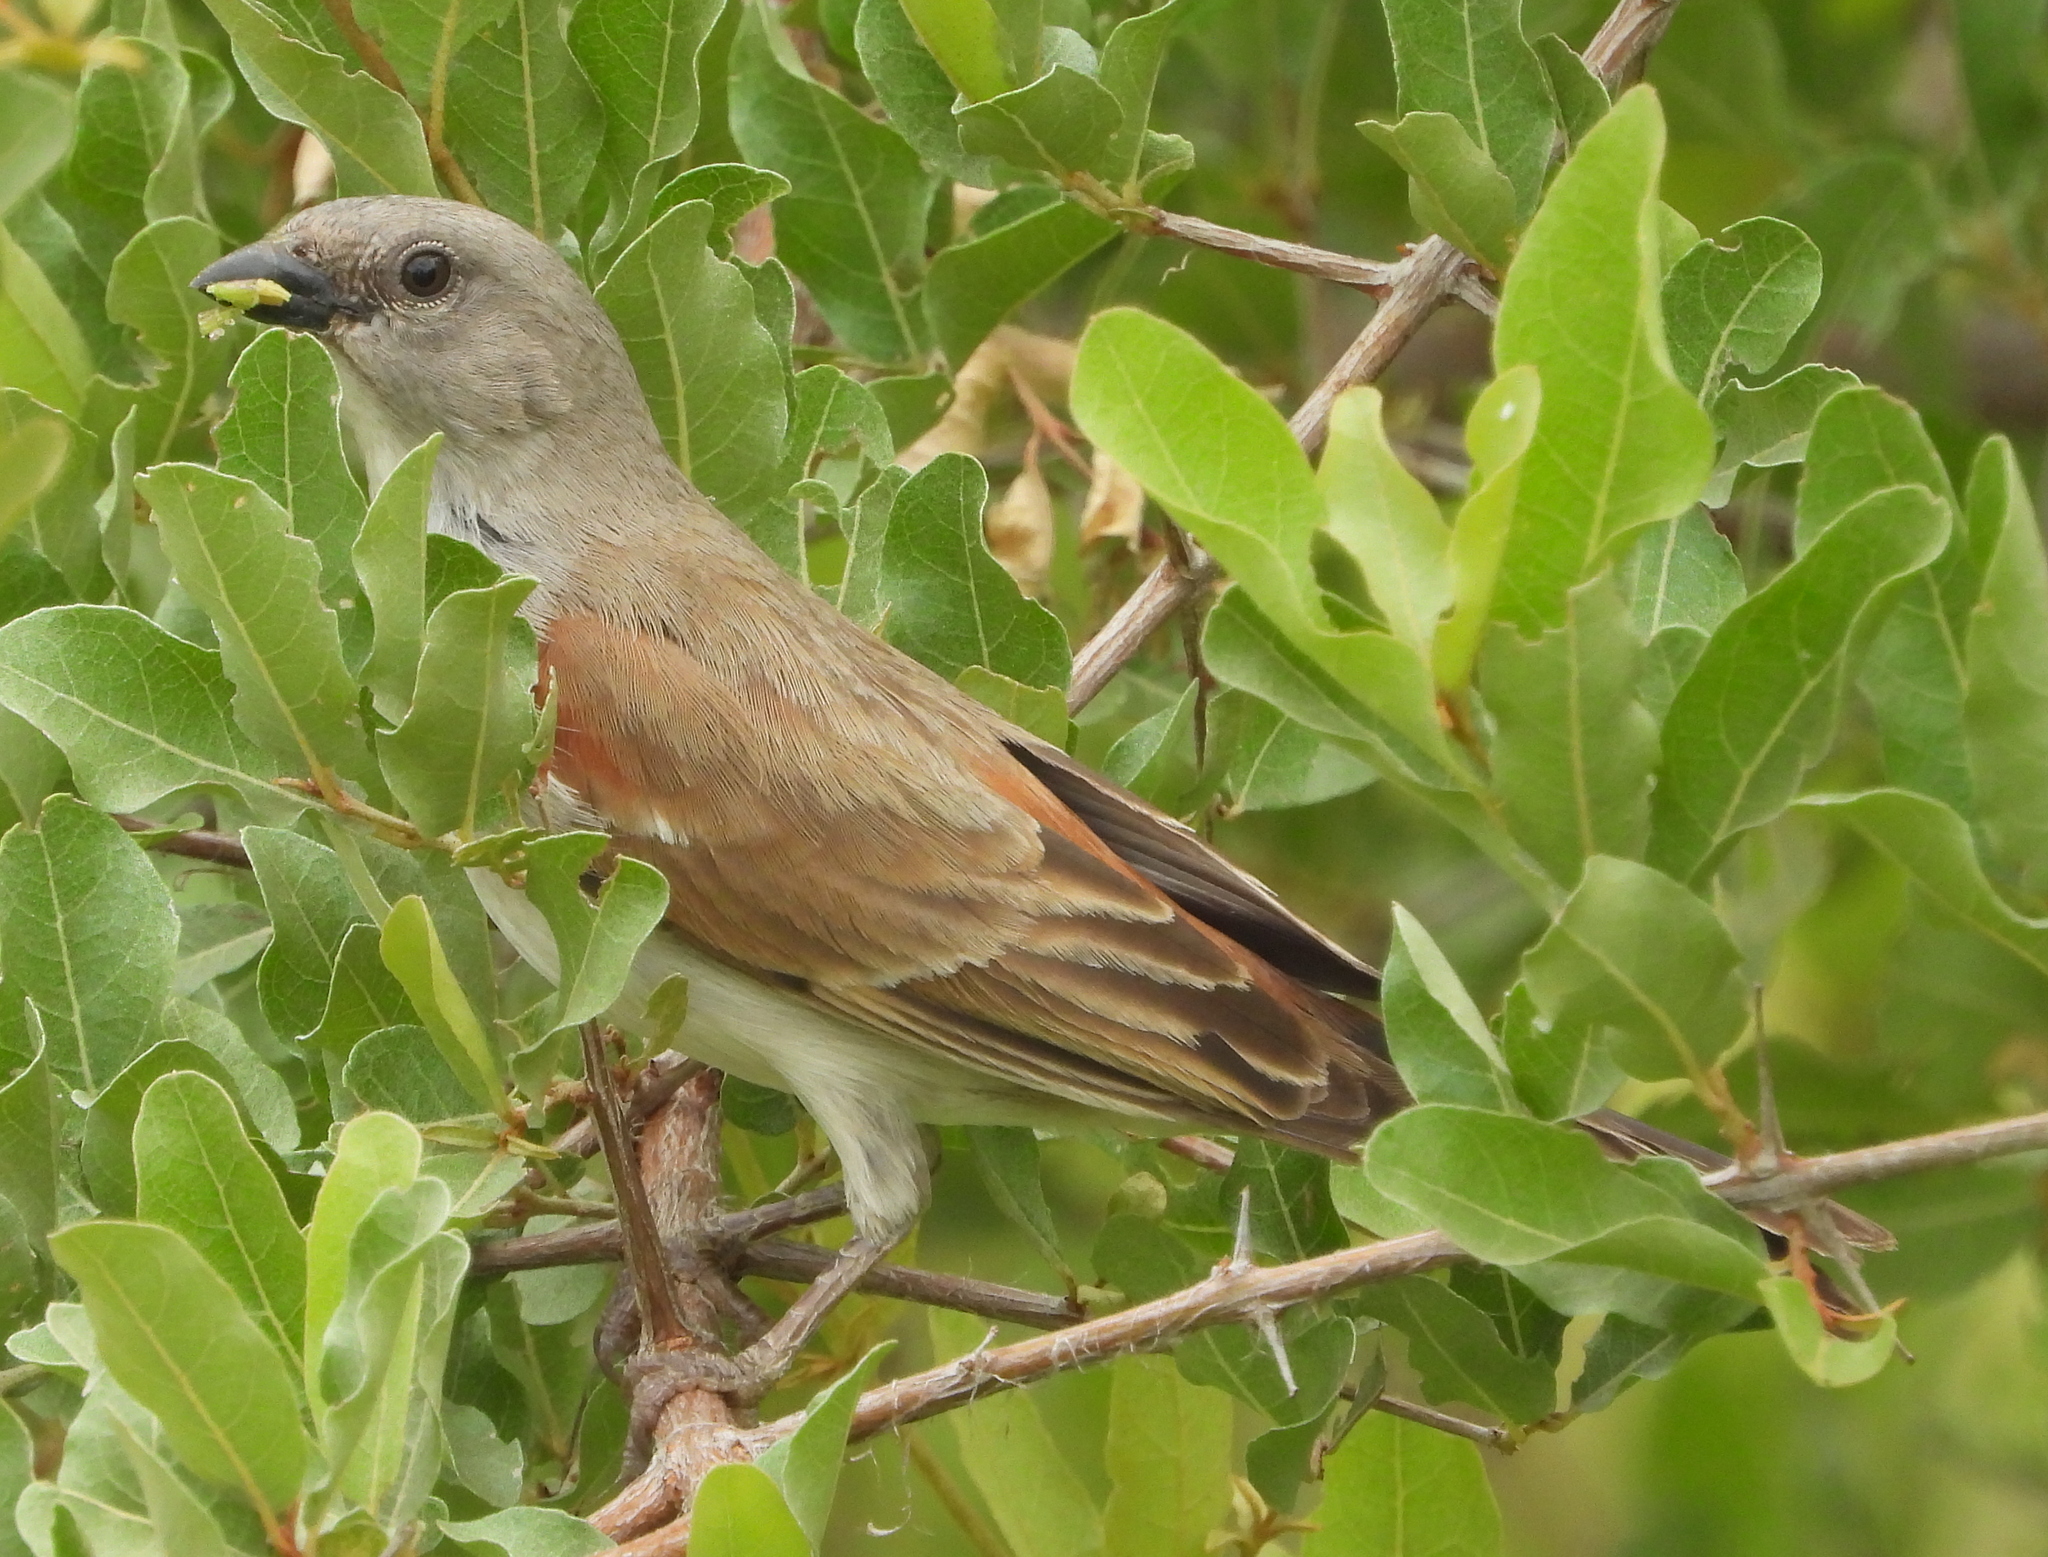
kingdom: Animalia
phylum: Chordata
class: Aves
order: Passeriformes
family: Passeridae
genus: Passer
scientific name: Passer diffusus
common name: Southern grey-headed sparrow
